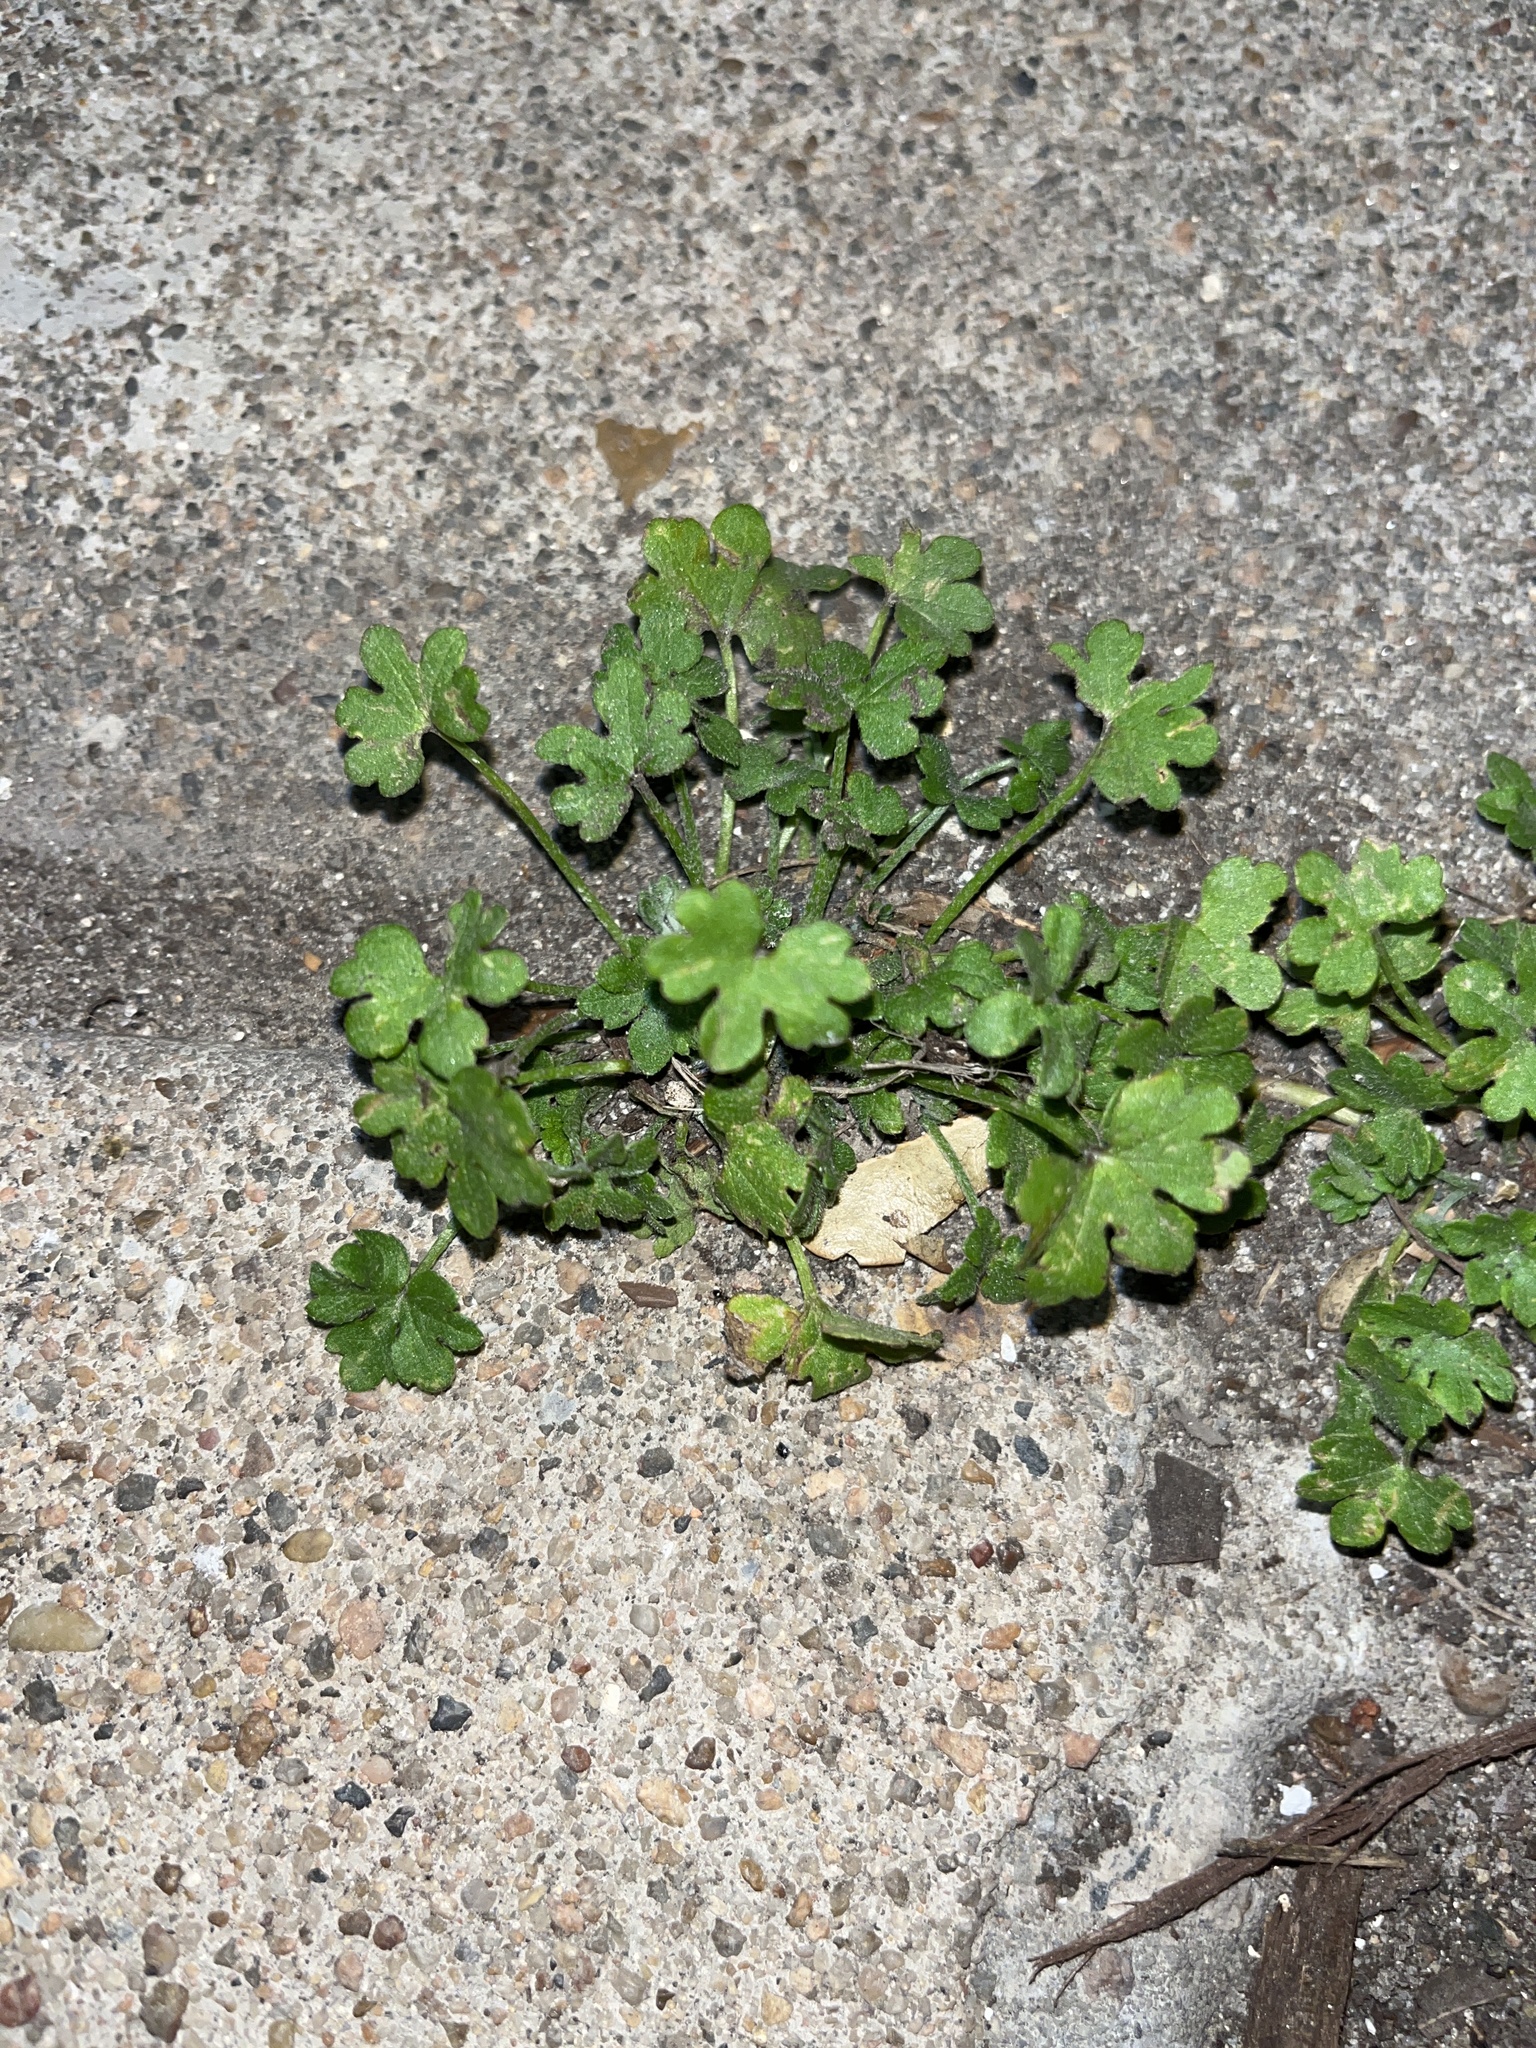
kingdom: Plantae
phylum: Tracheophyta
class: Magnoliopsida
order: Apiales
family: Apiaceae
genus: Bowlesia
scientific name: Bowlesia incana
